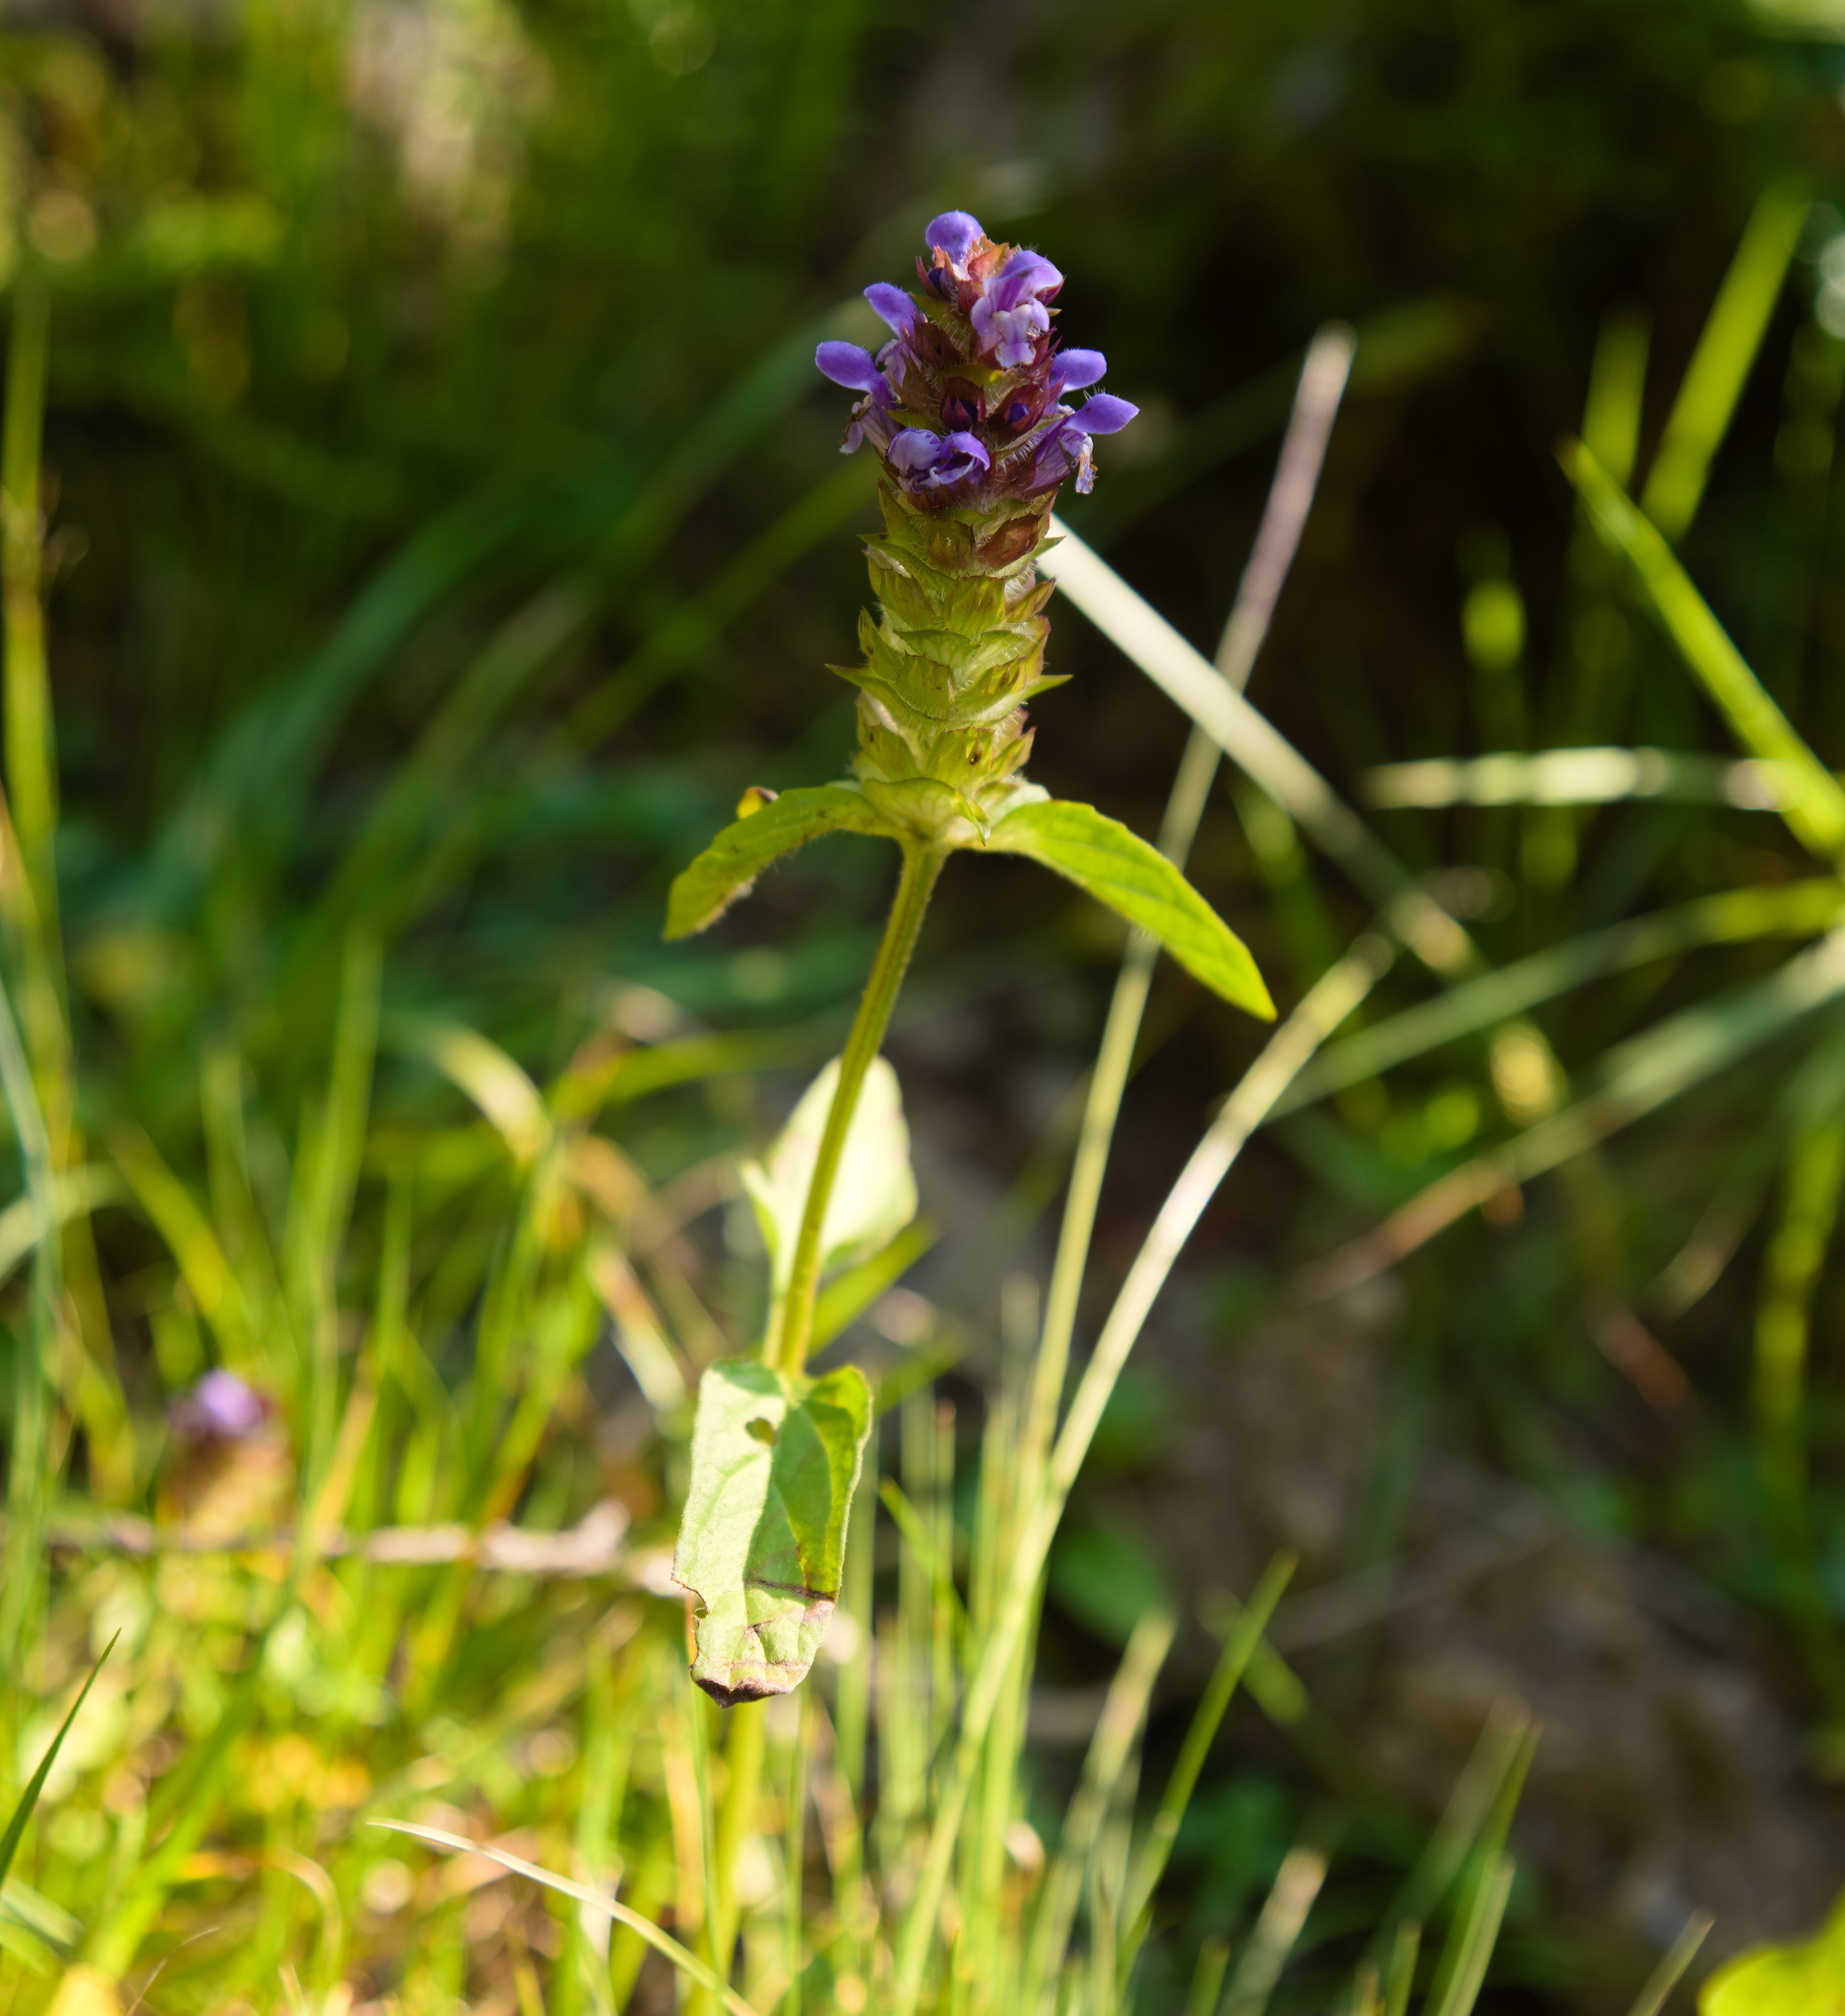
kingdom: Plantae
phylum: Tracheophyta
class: Magnoliopsida
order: Lamiales
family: Lamiaceae
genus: Prunella
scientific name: Prunella vulgaris
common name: Heal-all
